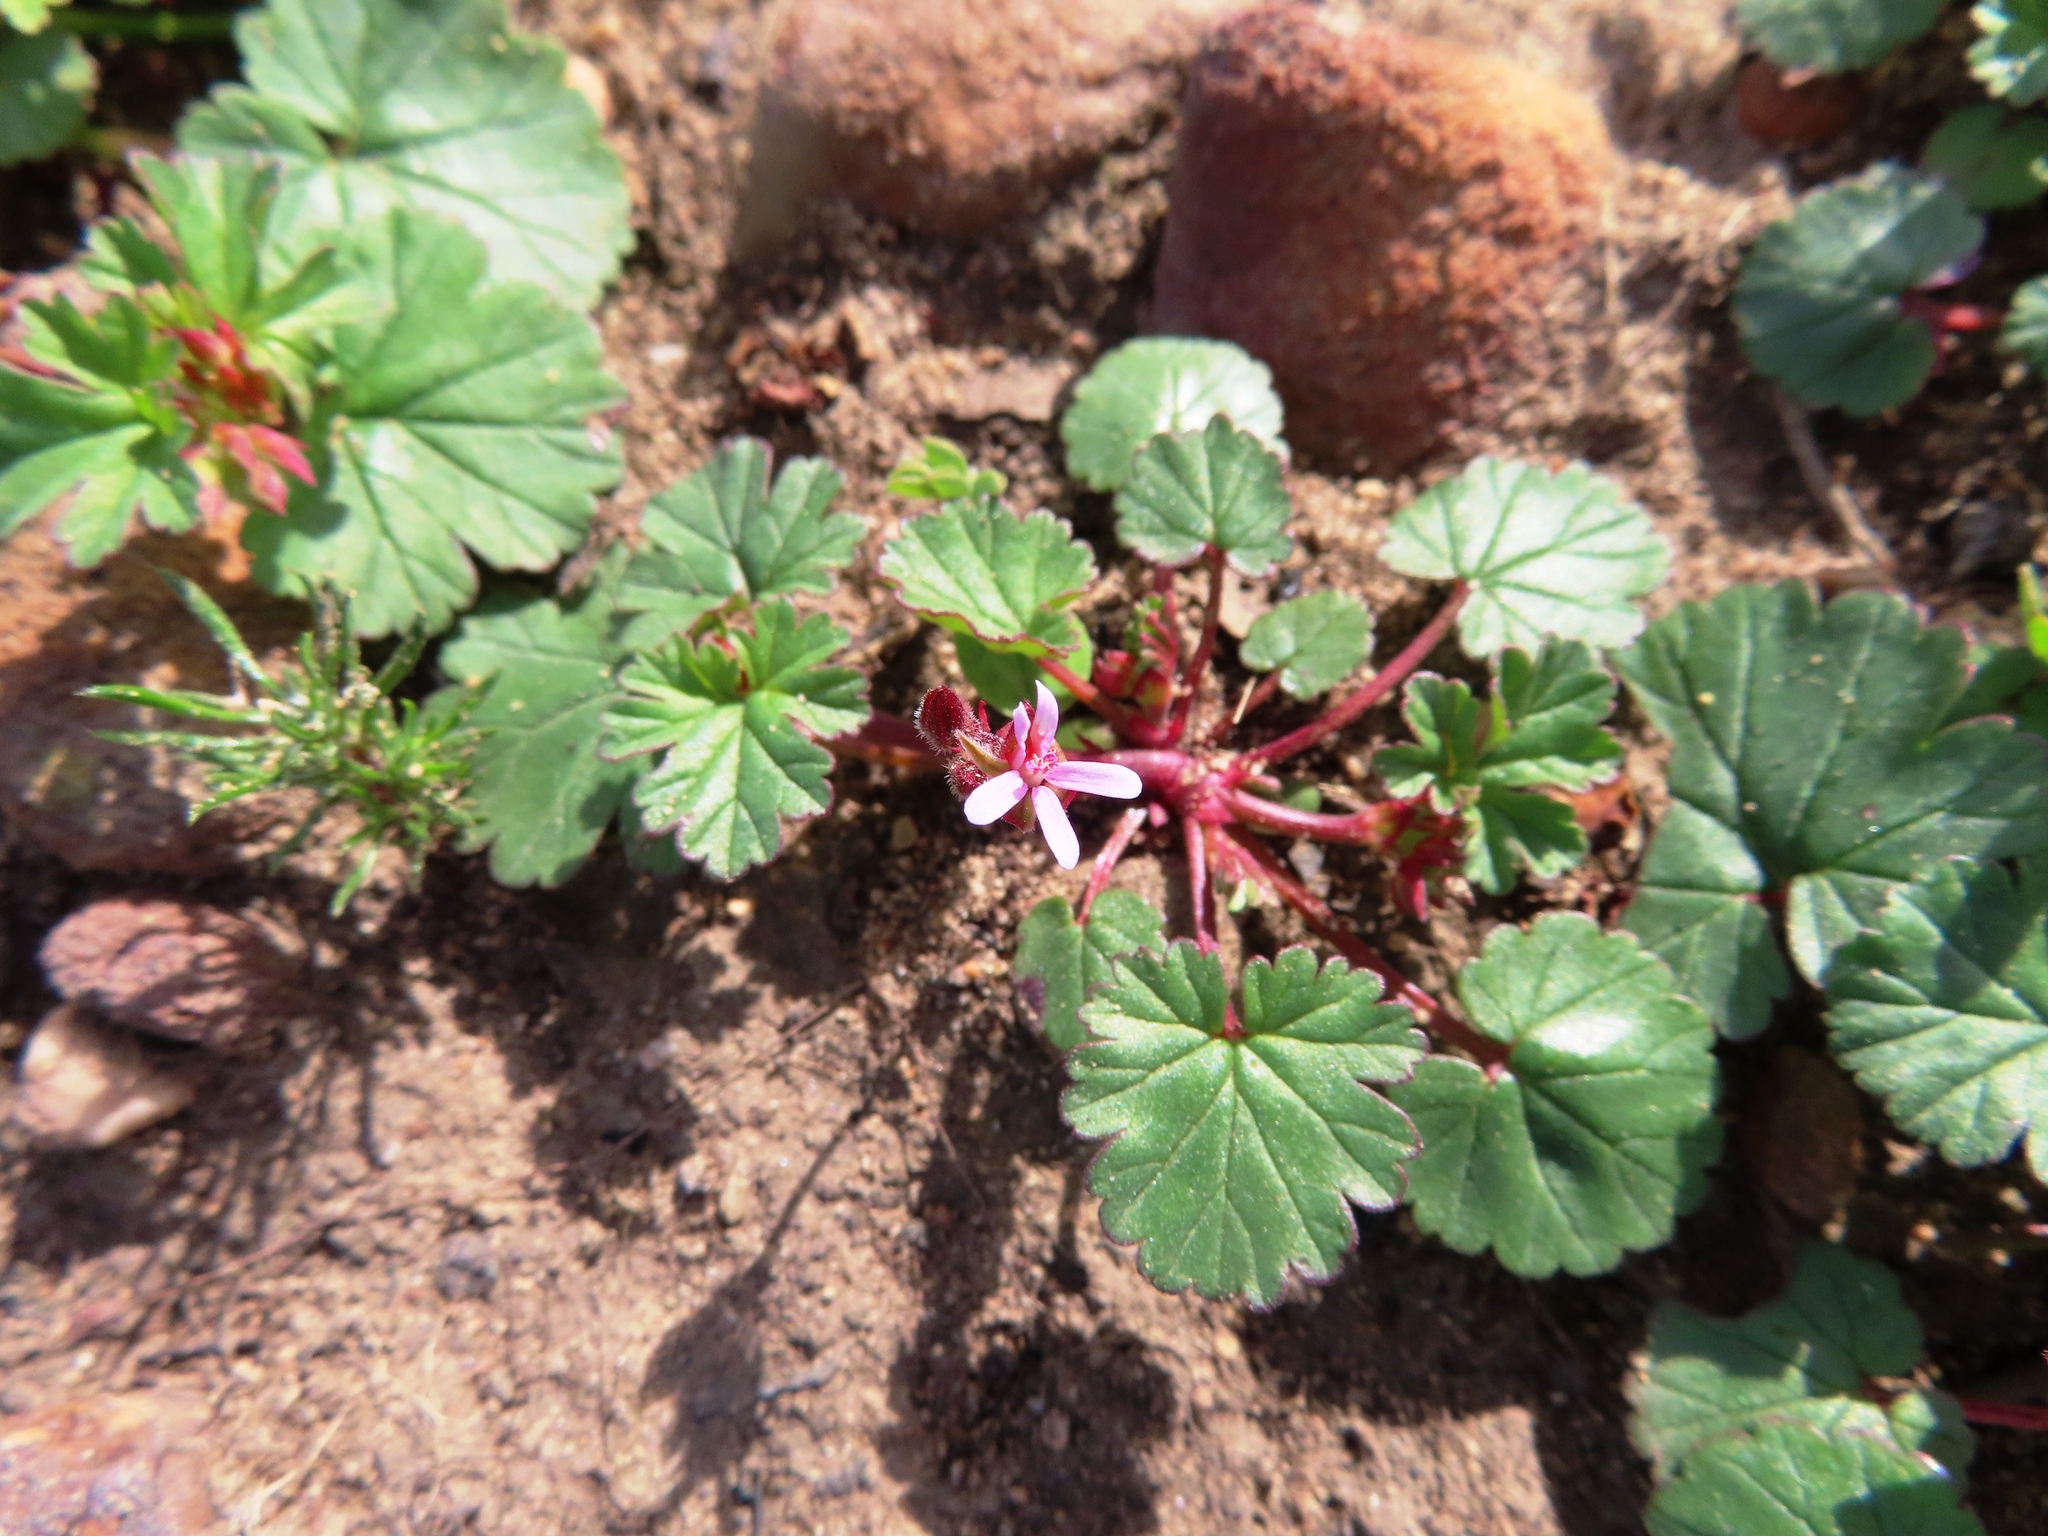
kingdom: Plantae
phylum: Tracheophyta
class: Magnoliopsida
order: Geraniales
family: Geraniaceae
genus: Pelargonium
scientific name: Pelargonium grossularioides
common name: Gooseberry geranium
